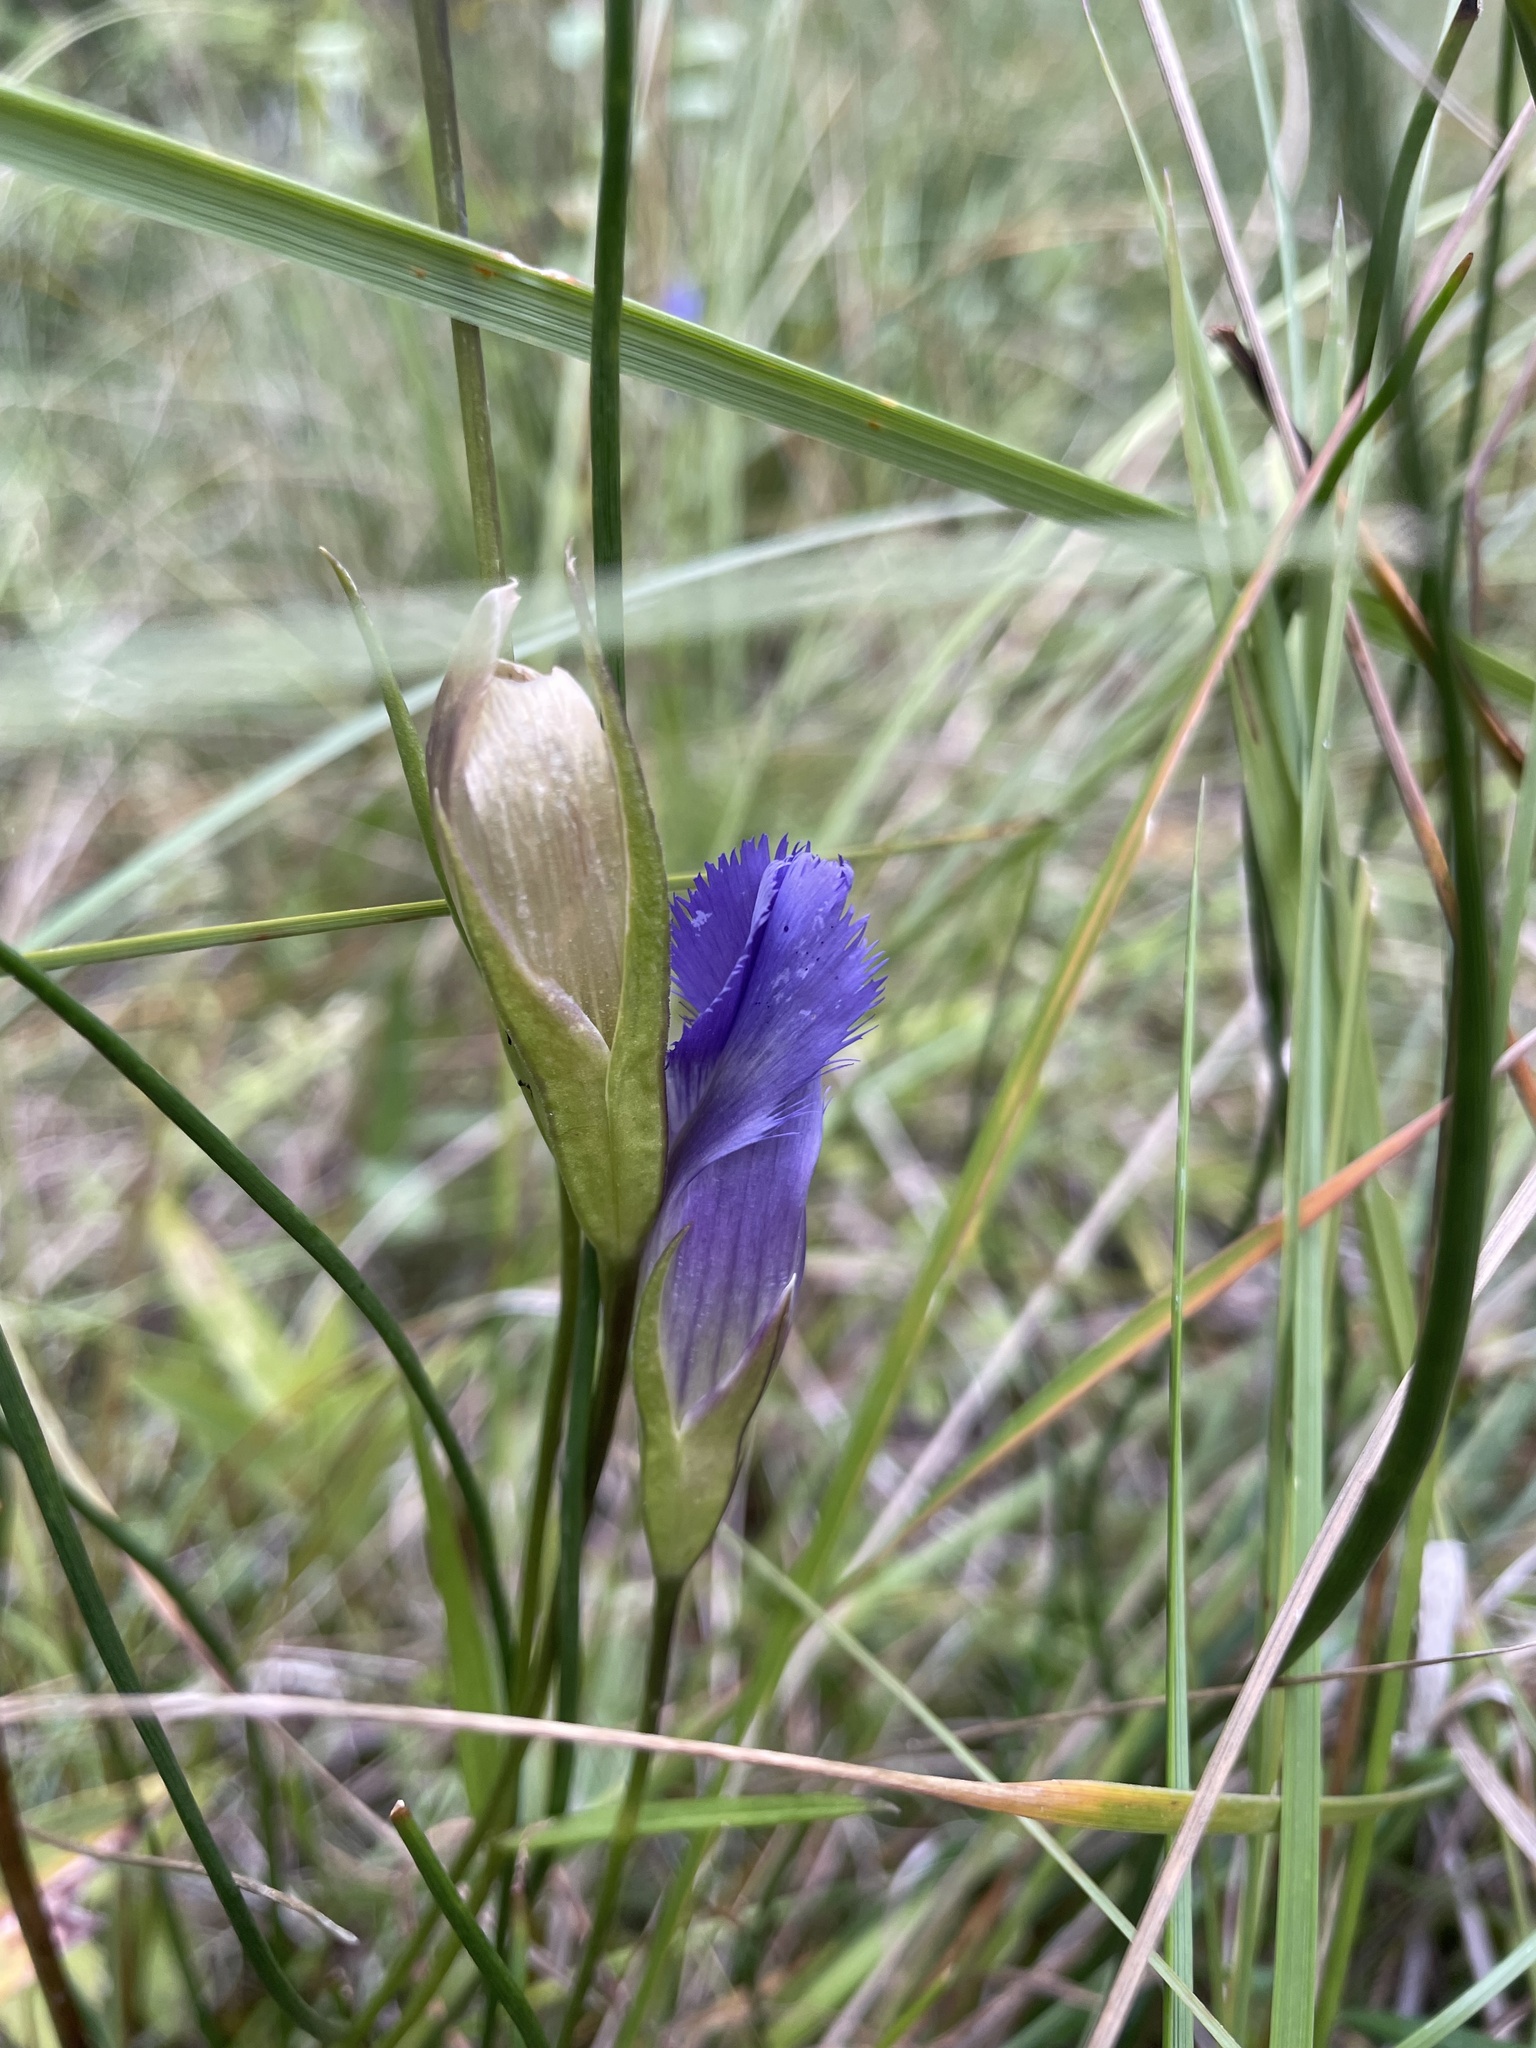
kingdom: Plantae
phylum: Tracheophyta
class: Magnoliopsida
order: Gentianales
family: Gentianaceae
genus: Gentianopsis
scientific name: Gentianopsis virgata
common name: Lesser fringed-gentian
